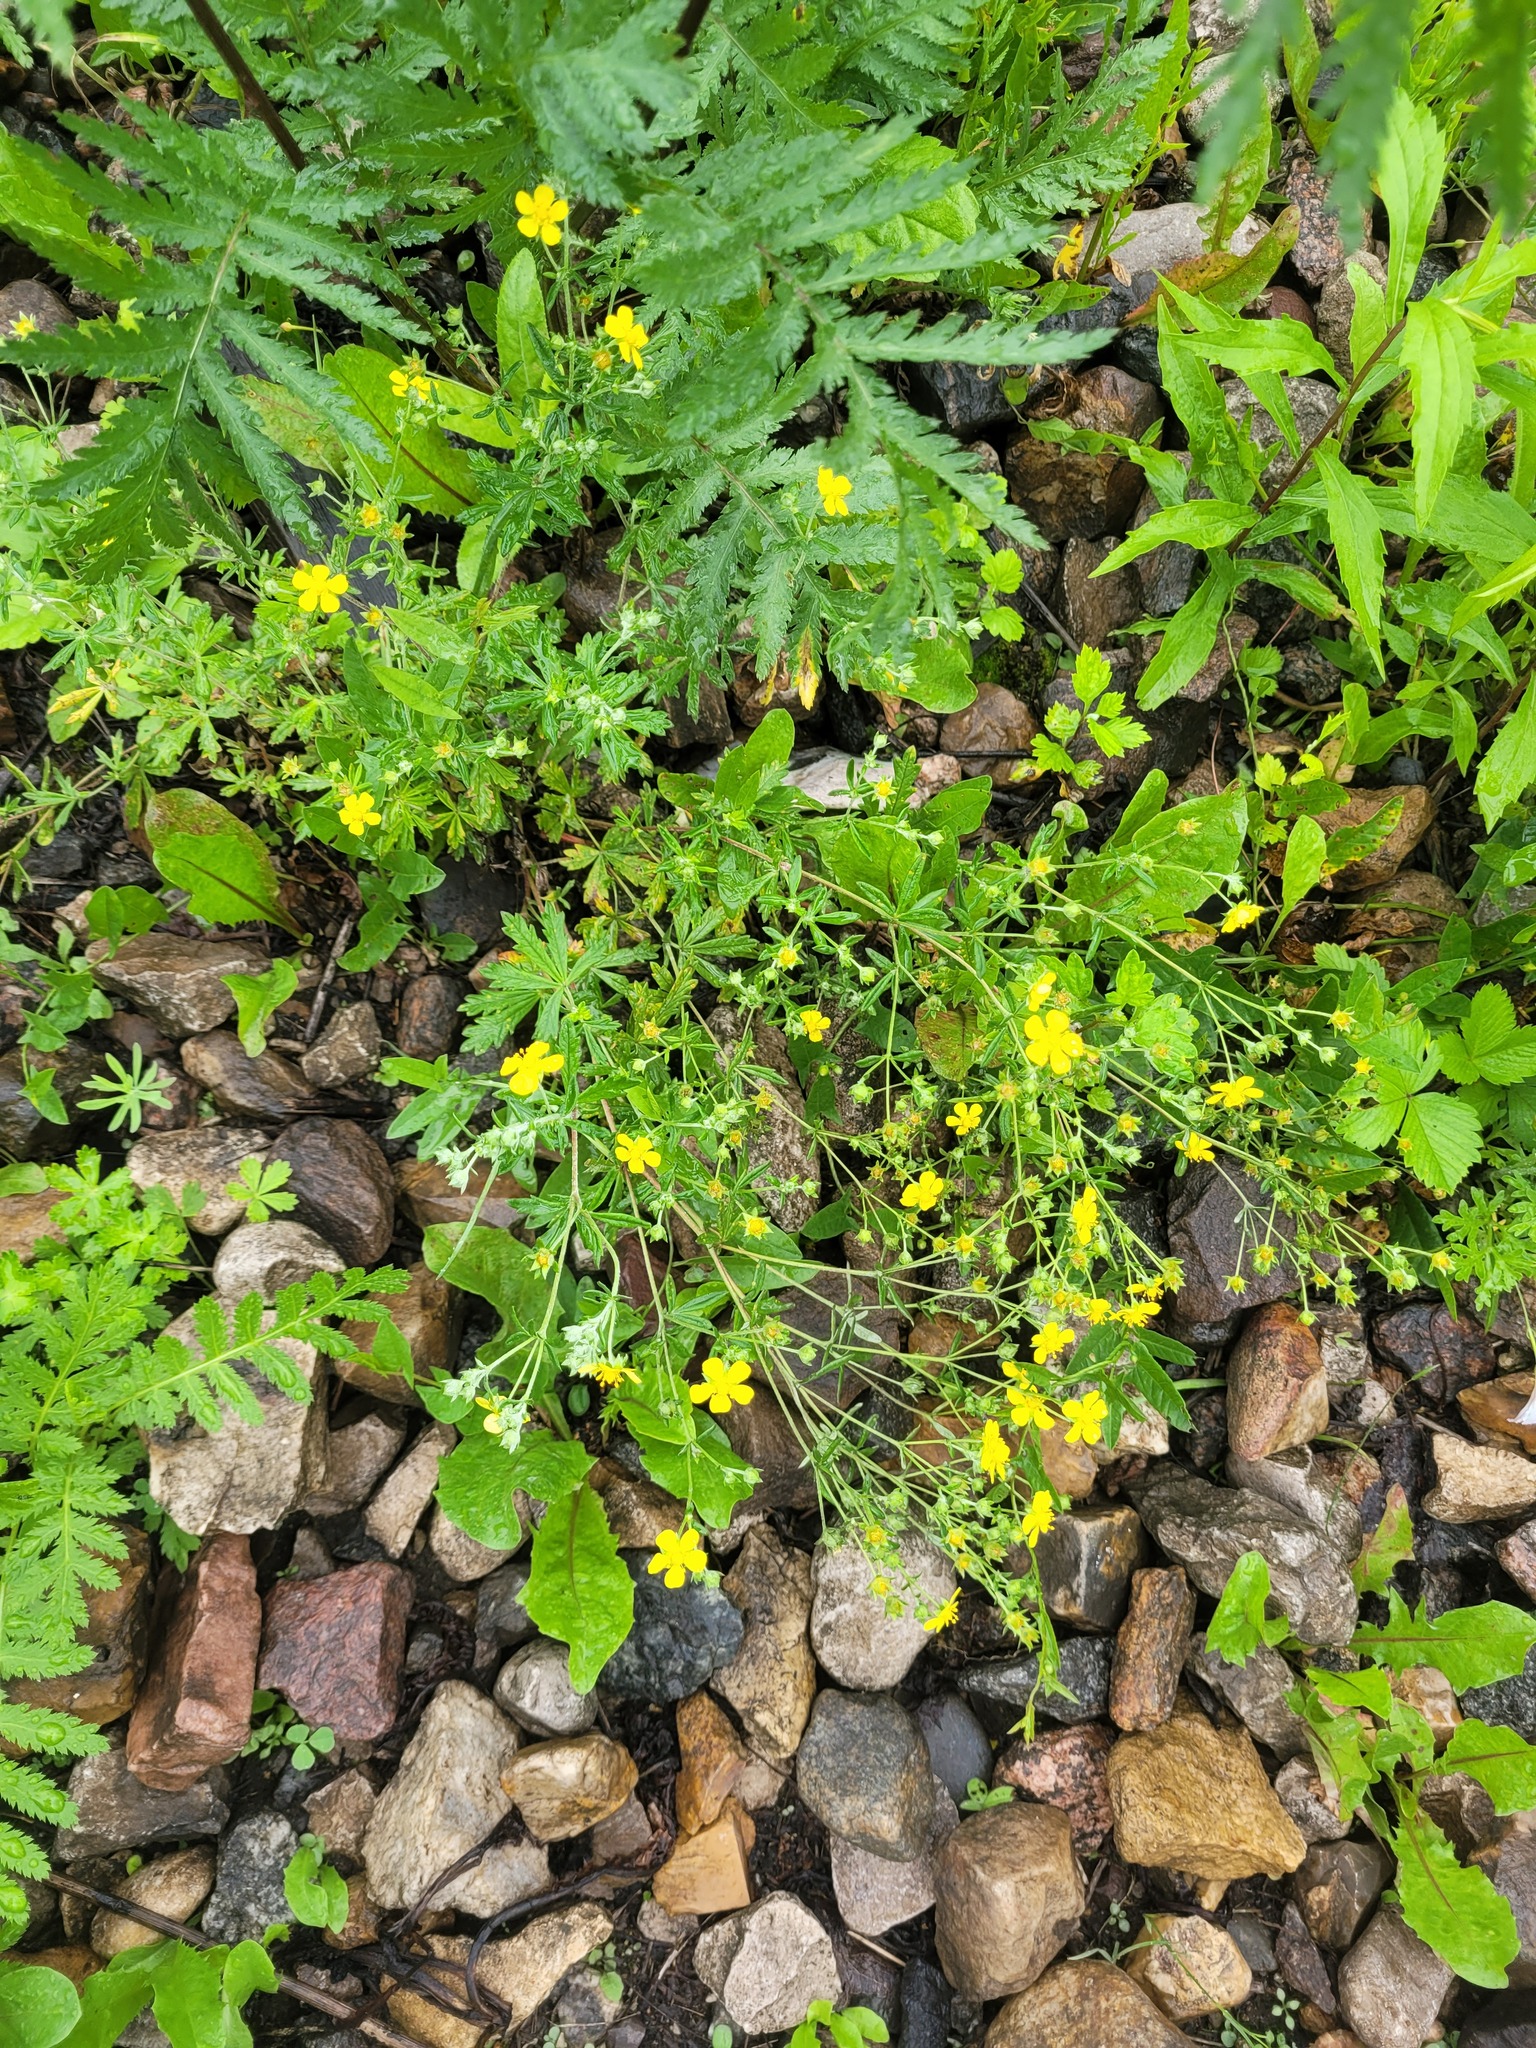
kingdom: Plantae
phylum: Tracheophyta
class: Magnoliopsida
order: Rosales
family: Rosaceae
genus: Potentilla
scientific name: Potentilla argentea
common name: Hoary cinquefoil
